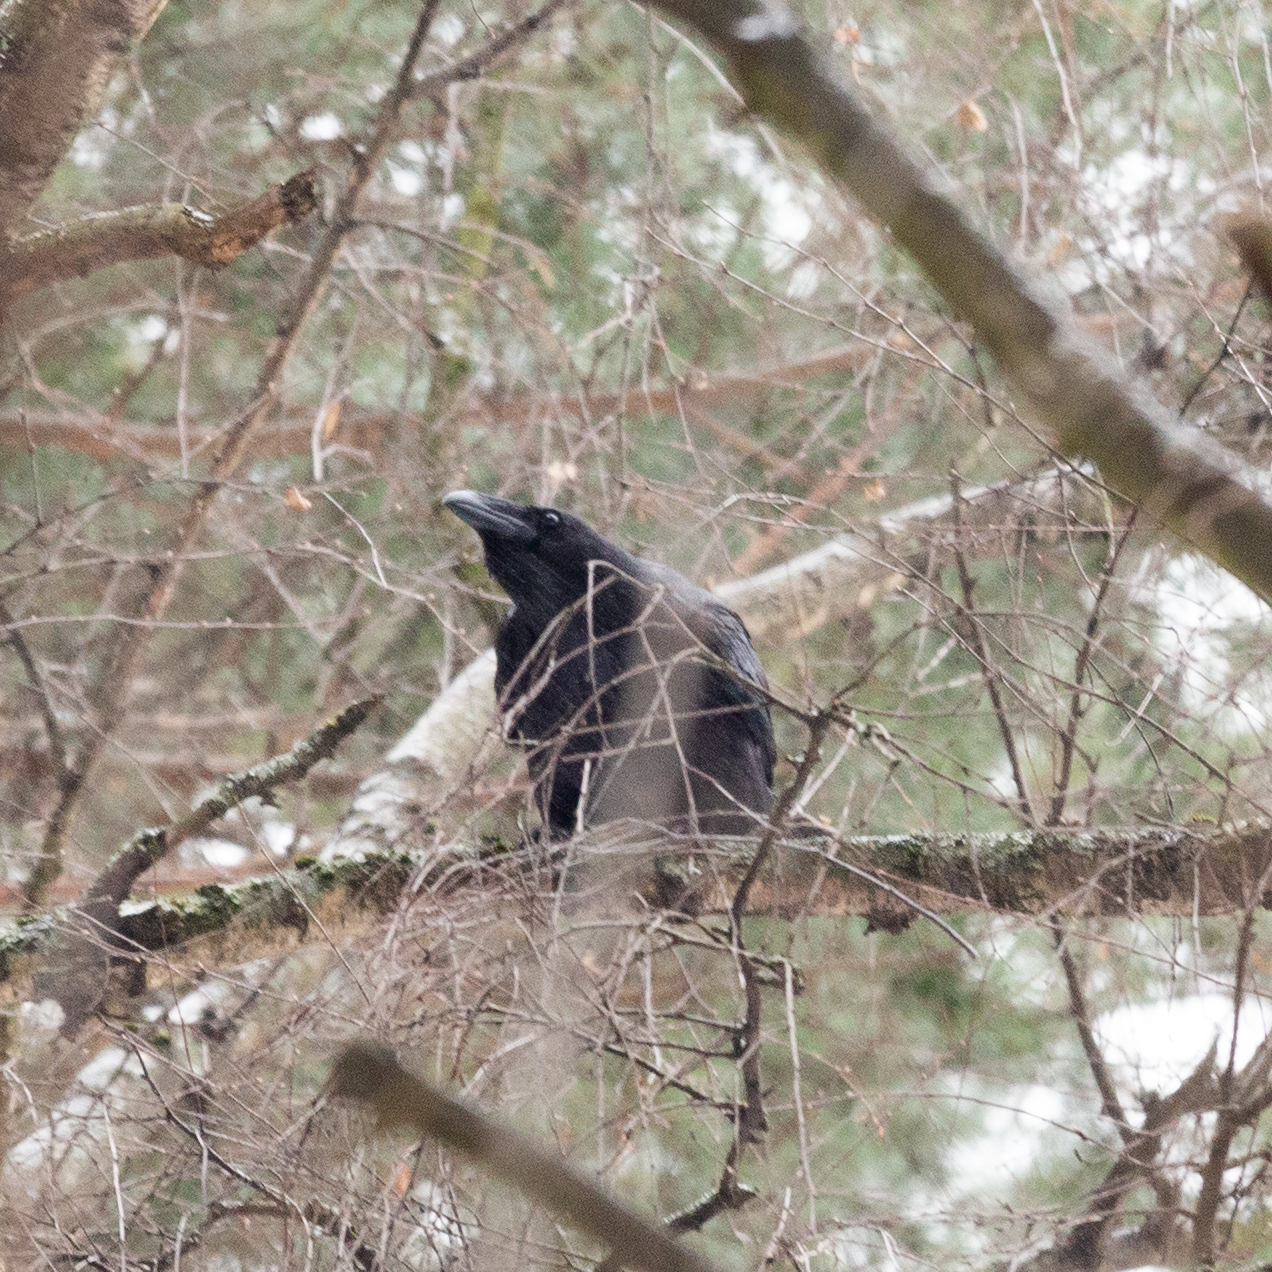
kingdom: Animalia
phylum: Chordata
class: Aves
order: Passeriformes
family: Corvidae
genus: Corvus
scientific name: Corvus corax
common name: Common raven
